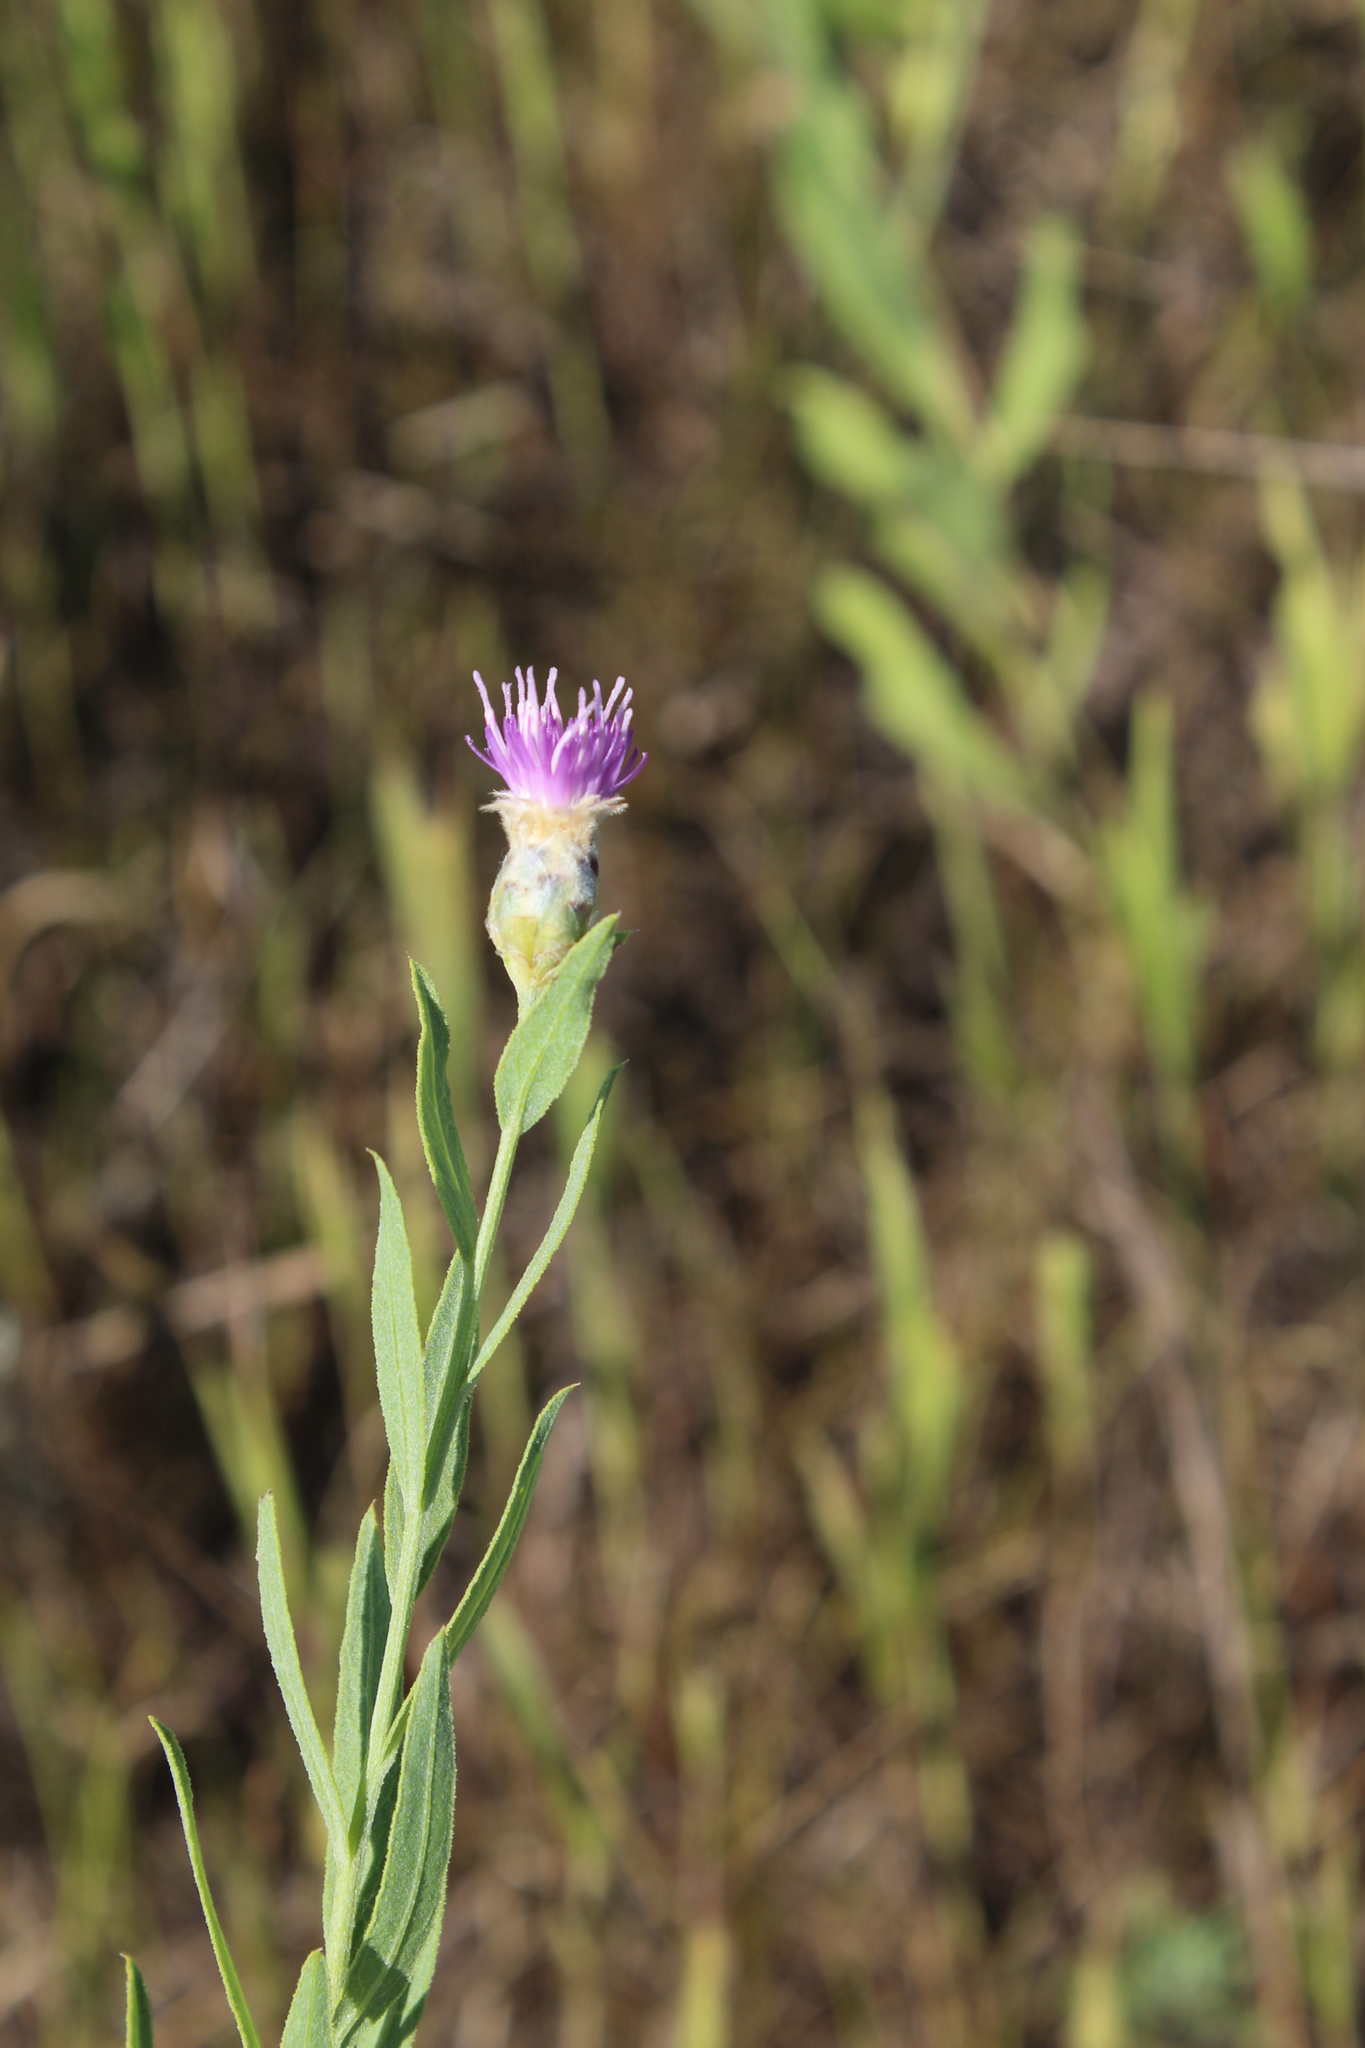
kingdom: Plantae
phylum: Tracheophyta
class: Magnoliopsida
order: Asterales
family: Asteraceae
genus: Leuzea
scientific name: Leuzea repens
